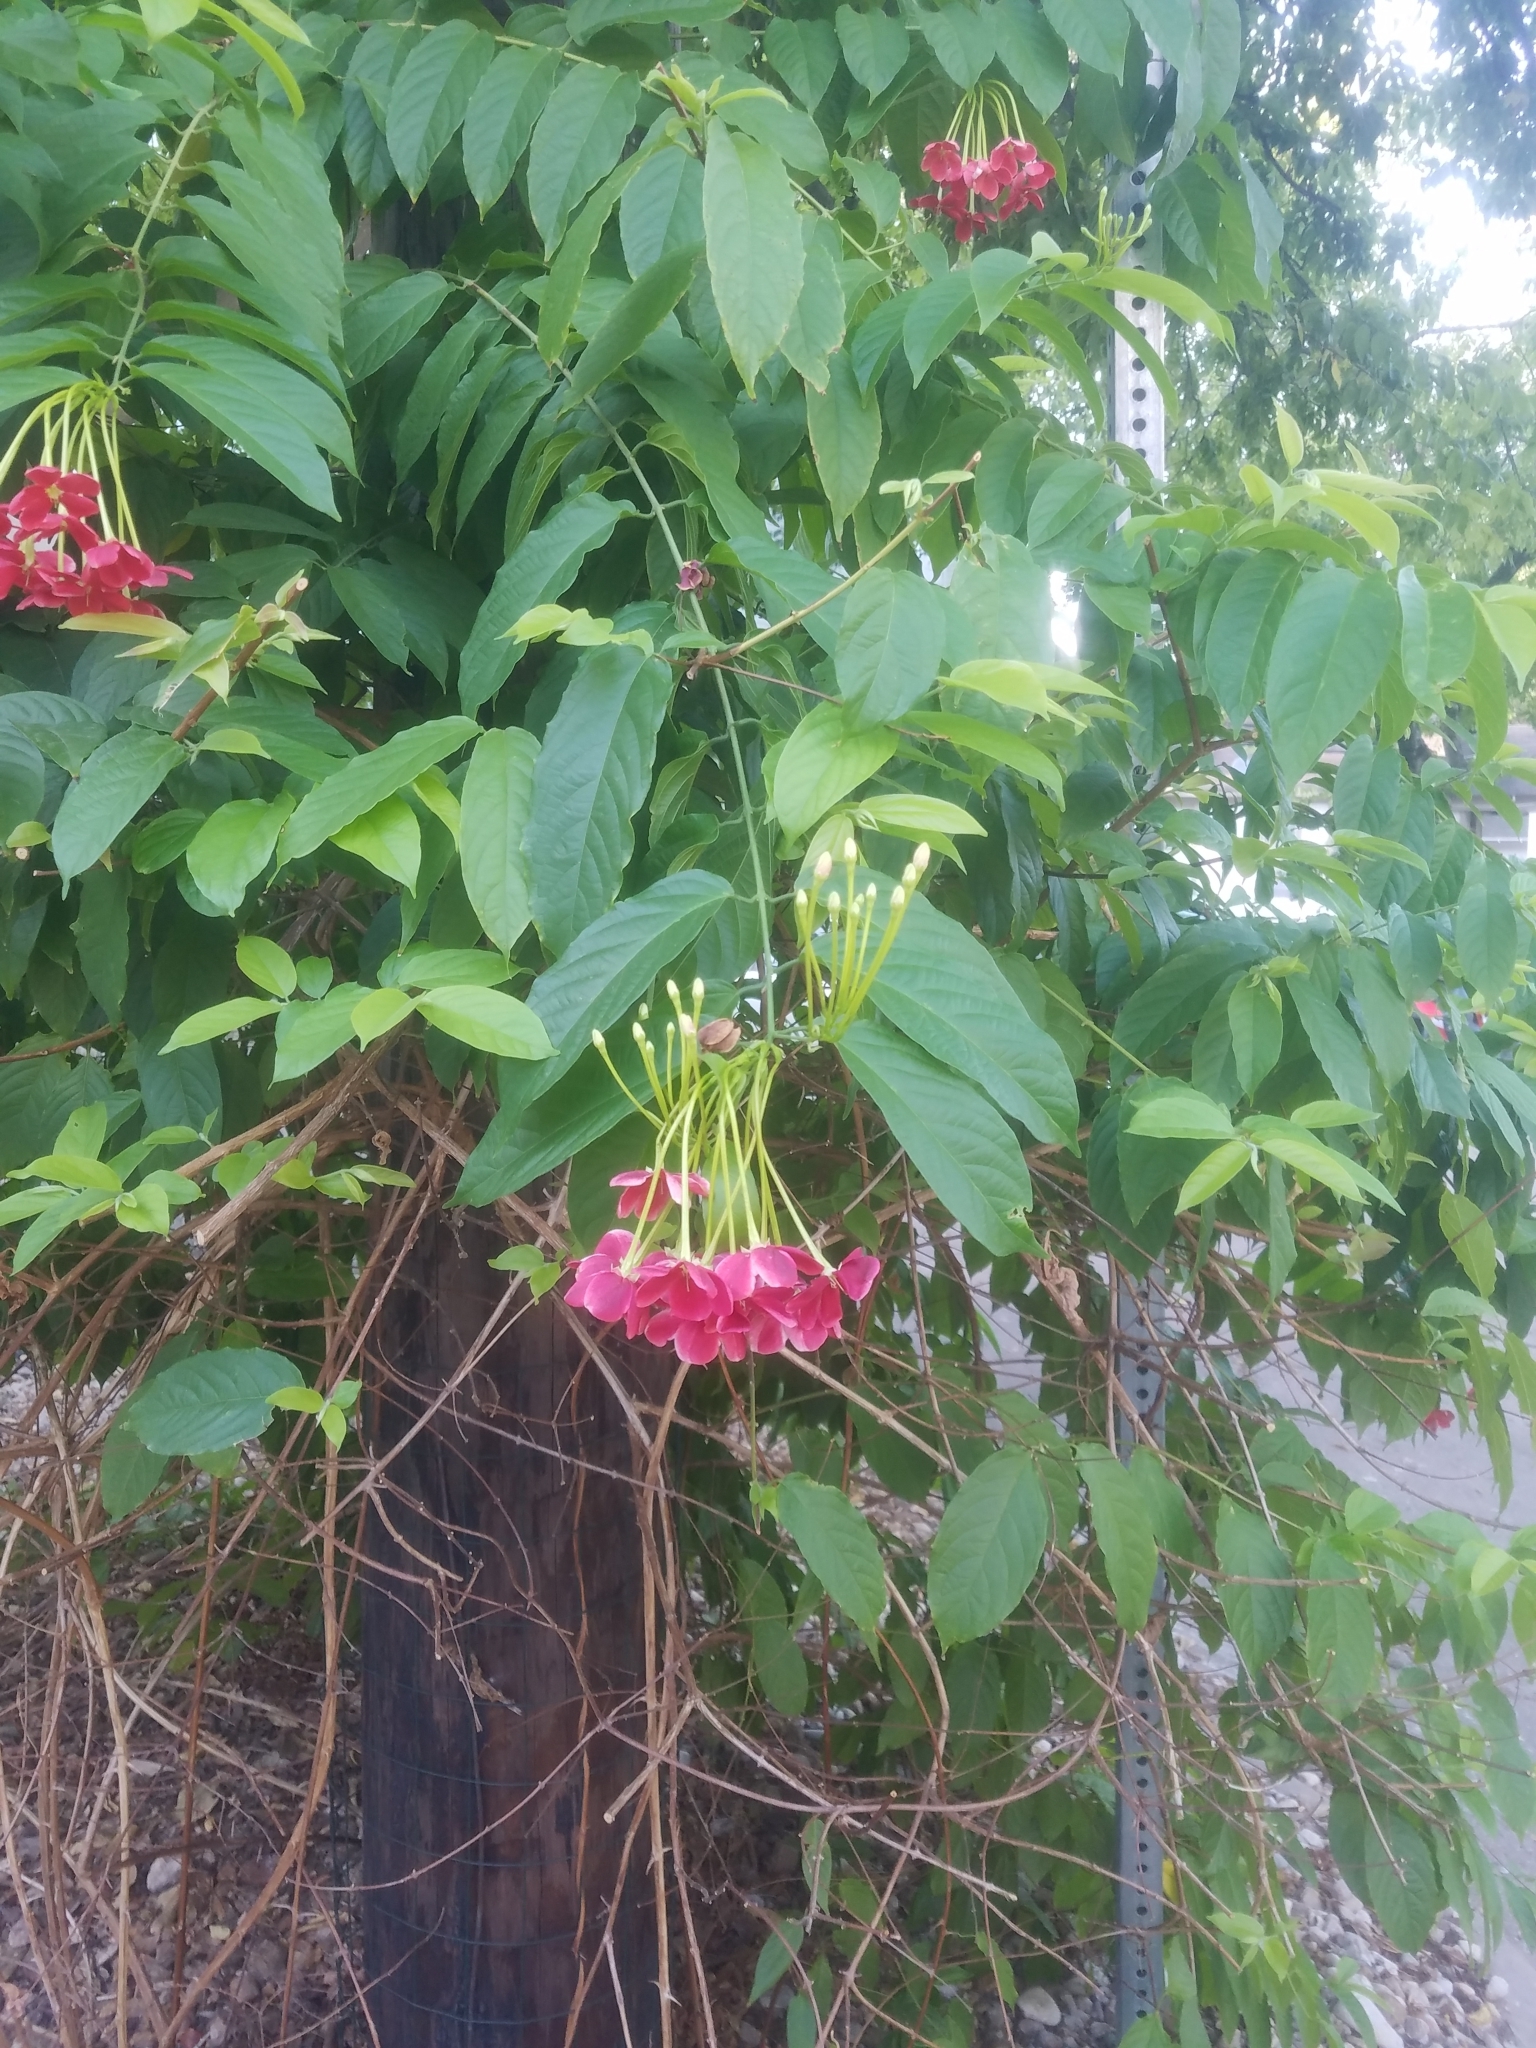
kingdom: Plantae
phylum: Tracheophyta
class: Magnoliopsida
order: Myrtales
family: Combretaceae
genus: Combretum
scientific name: Combretum indicum
